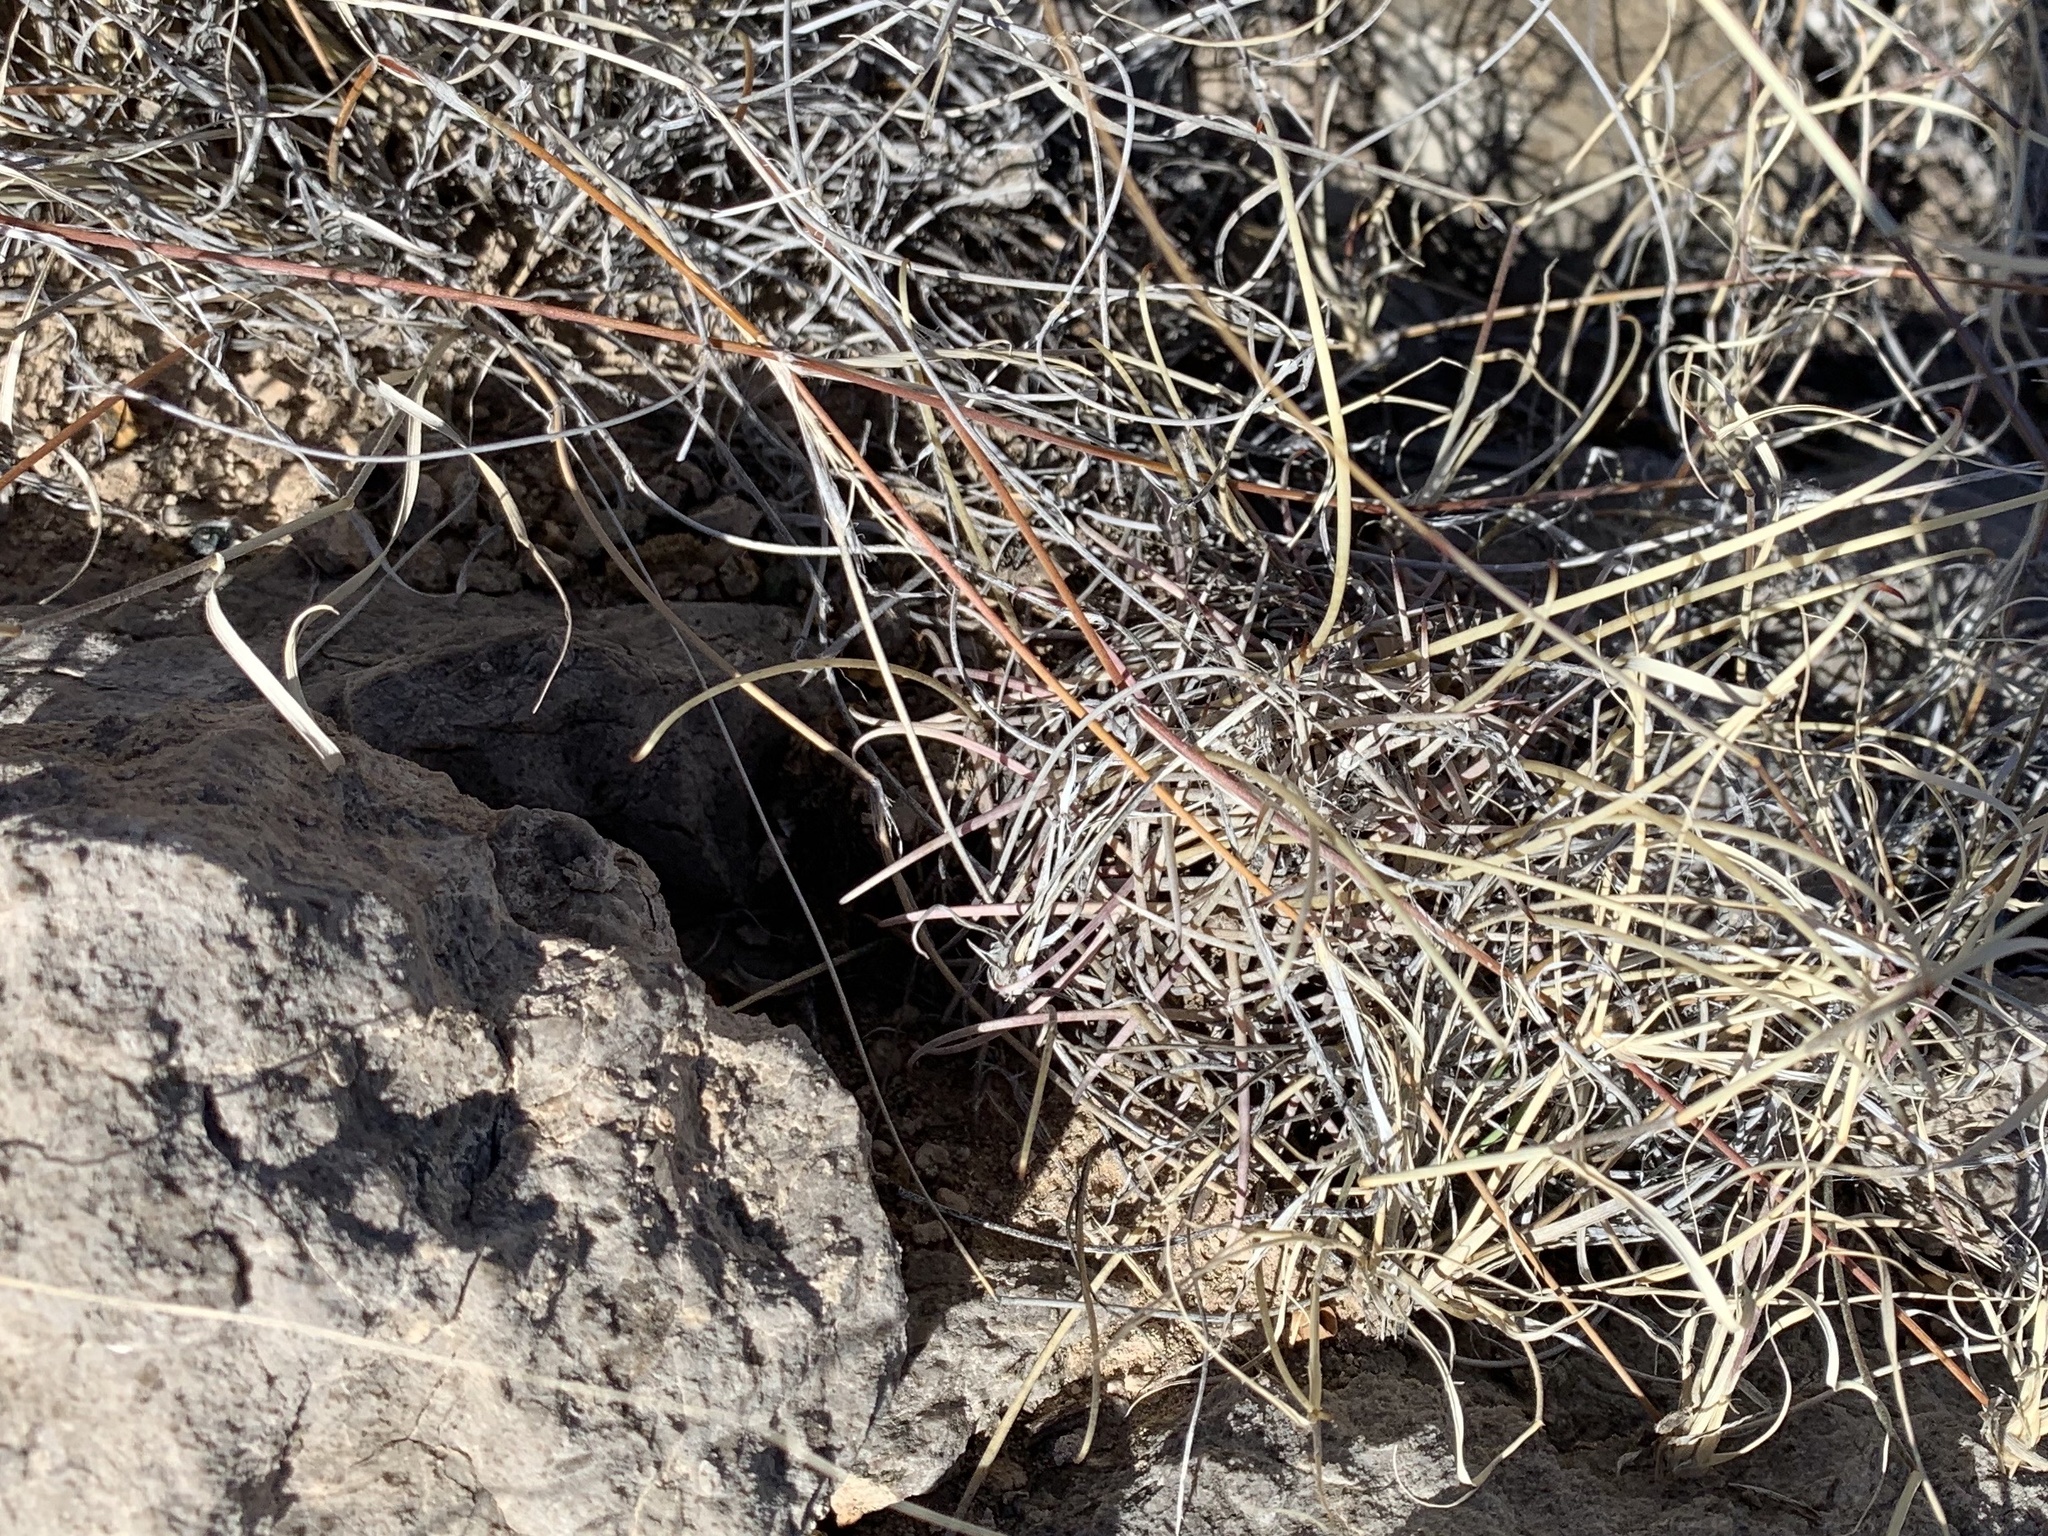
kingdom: Plantae
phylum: Tracheophyta
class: Magnoliopsida
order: Caryophyllales
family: Cactaceae
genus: Ferocactus
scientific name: Ferocactus uncinatus
